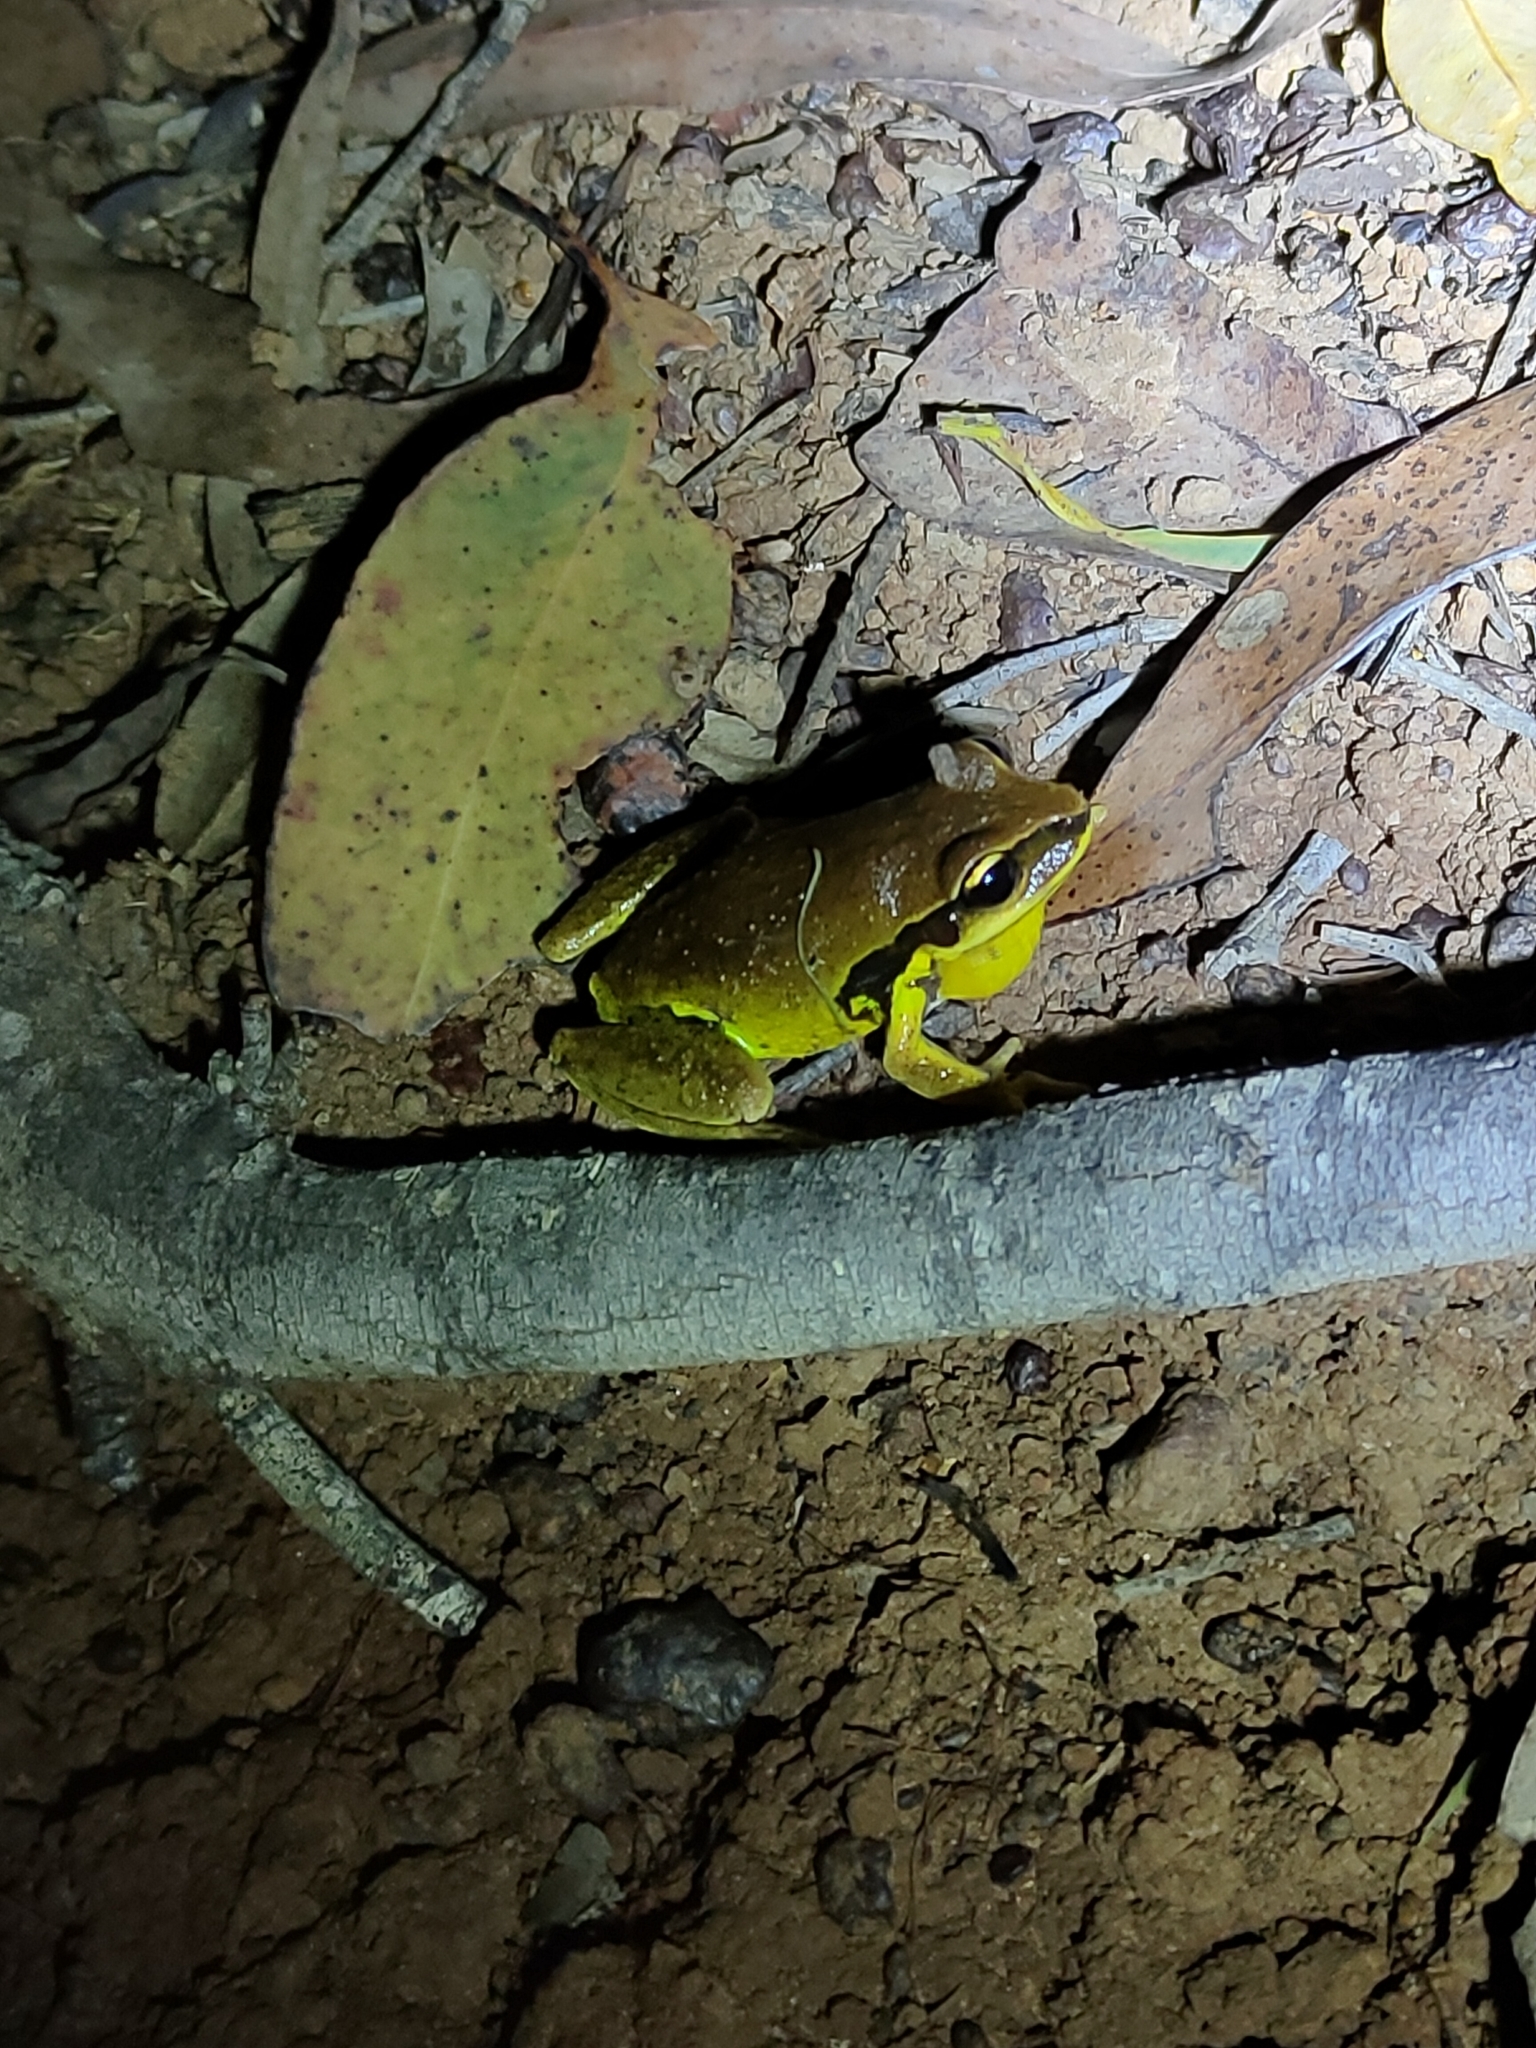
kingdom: Animalia
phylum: Chordata
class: Amphibia
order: Anura
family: Pelodryadidae
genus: Nyctimystes
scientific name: Nyctimystes brevipalmatus
